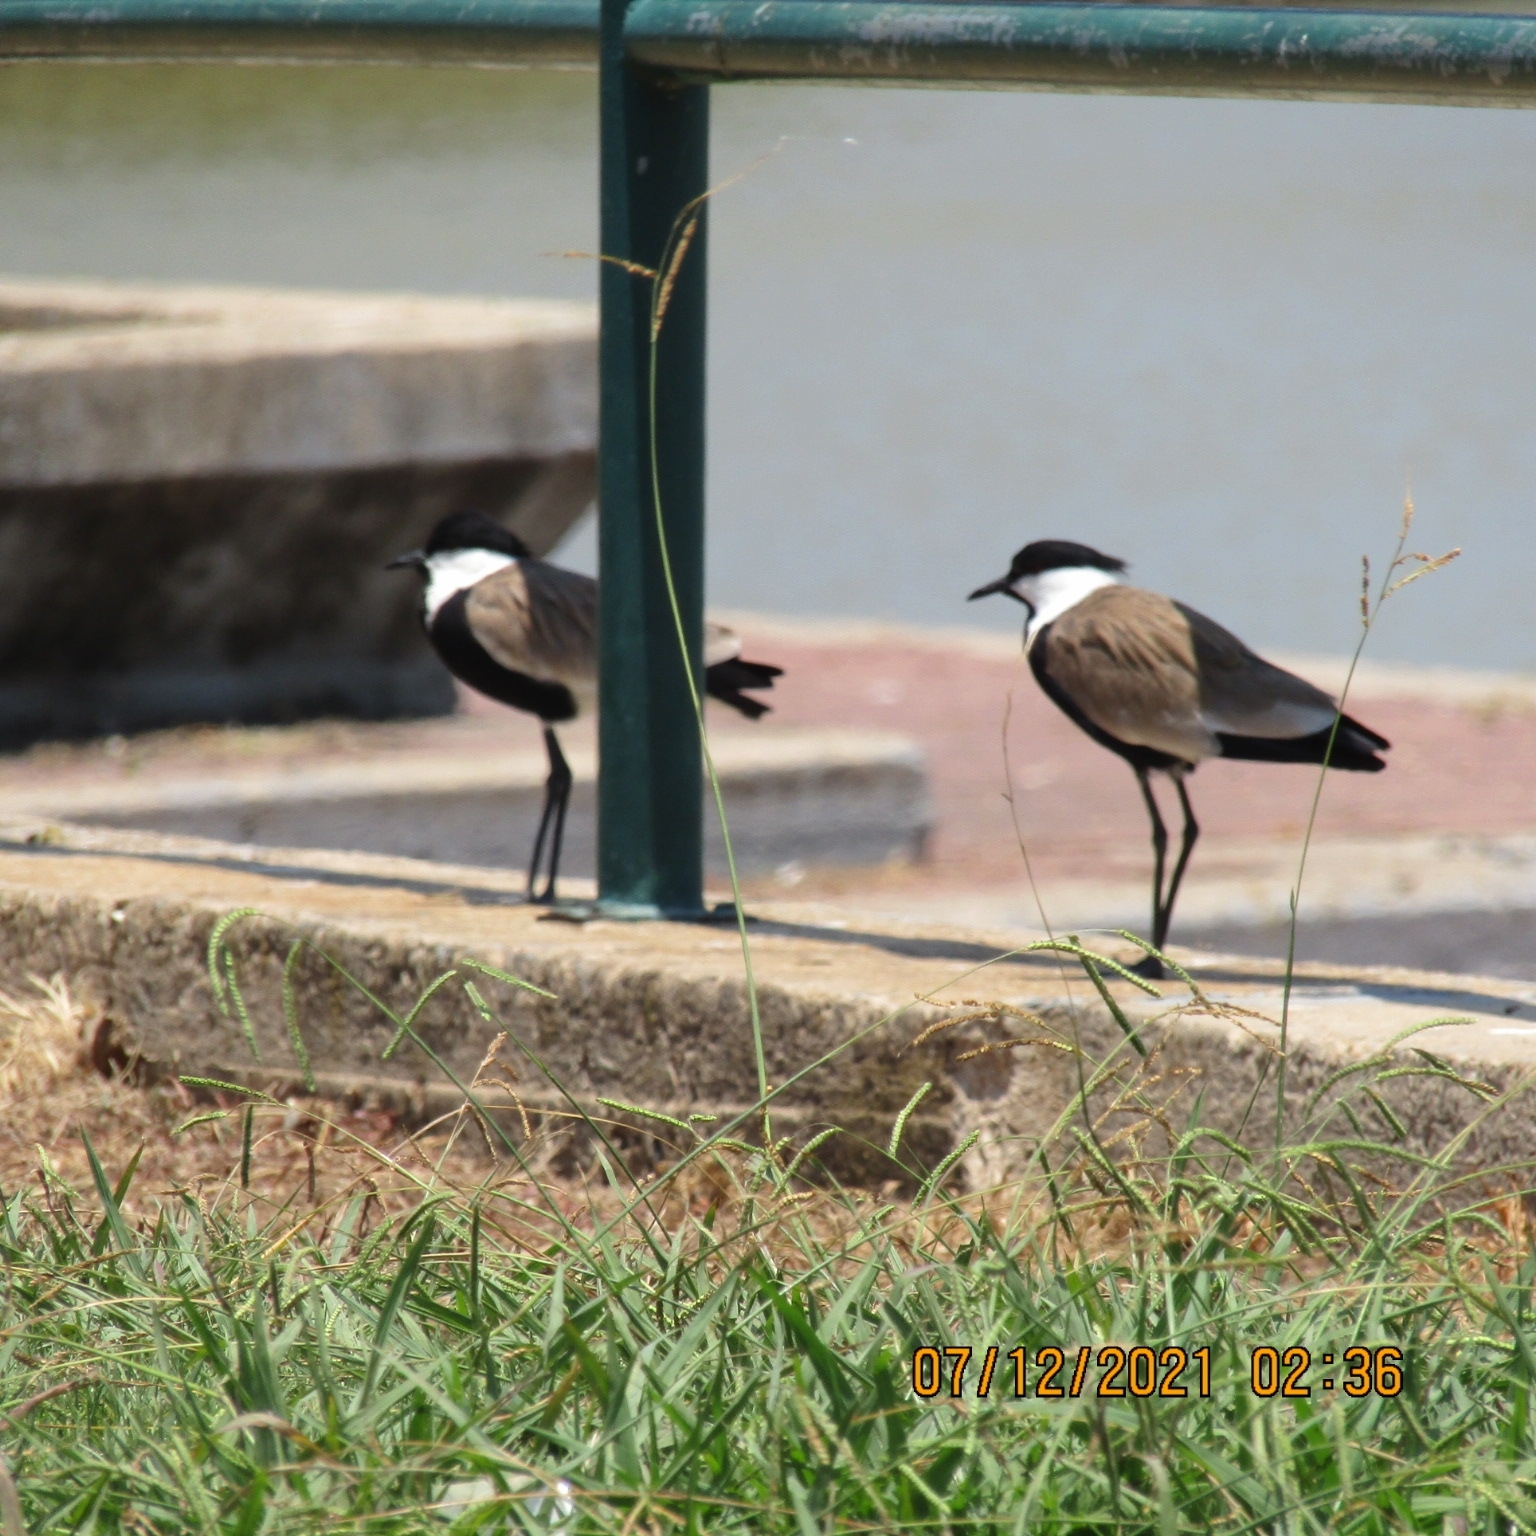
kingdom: Animalia
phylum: Chordata
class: Aves
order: Charadriiformes
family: Charadriidae
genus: Vanellus
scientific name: Vanellus spinosus
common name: Spur-winged lapwing
